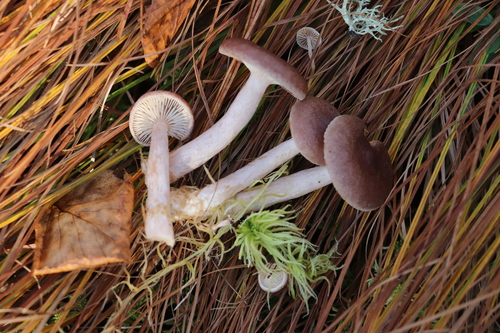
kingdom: Fungi
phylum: Basidiomycota
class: Agaricomycetes
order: Russulales
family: Russulaceae
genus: Lactarius
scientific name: Lactarius vietus
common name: Grey milk-cap
